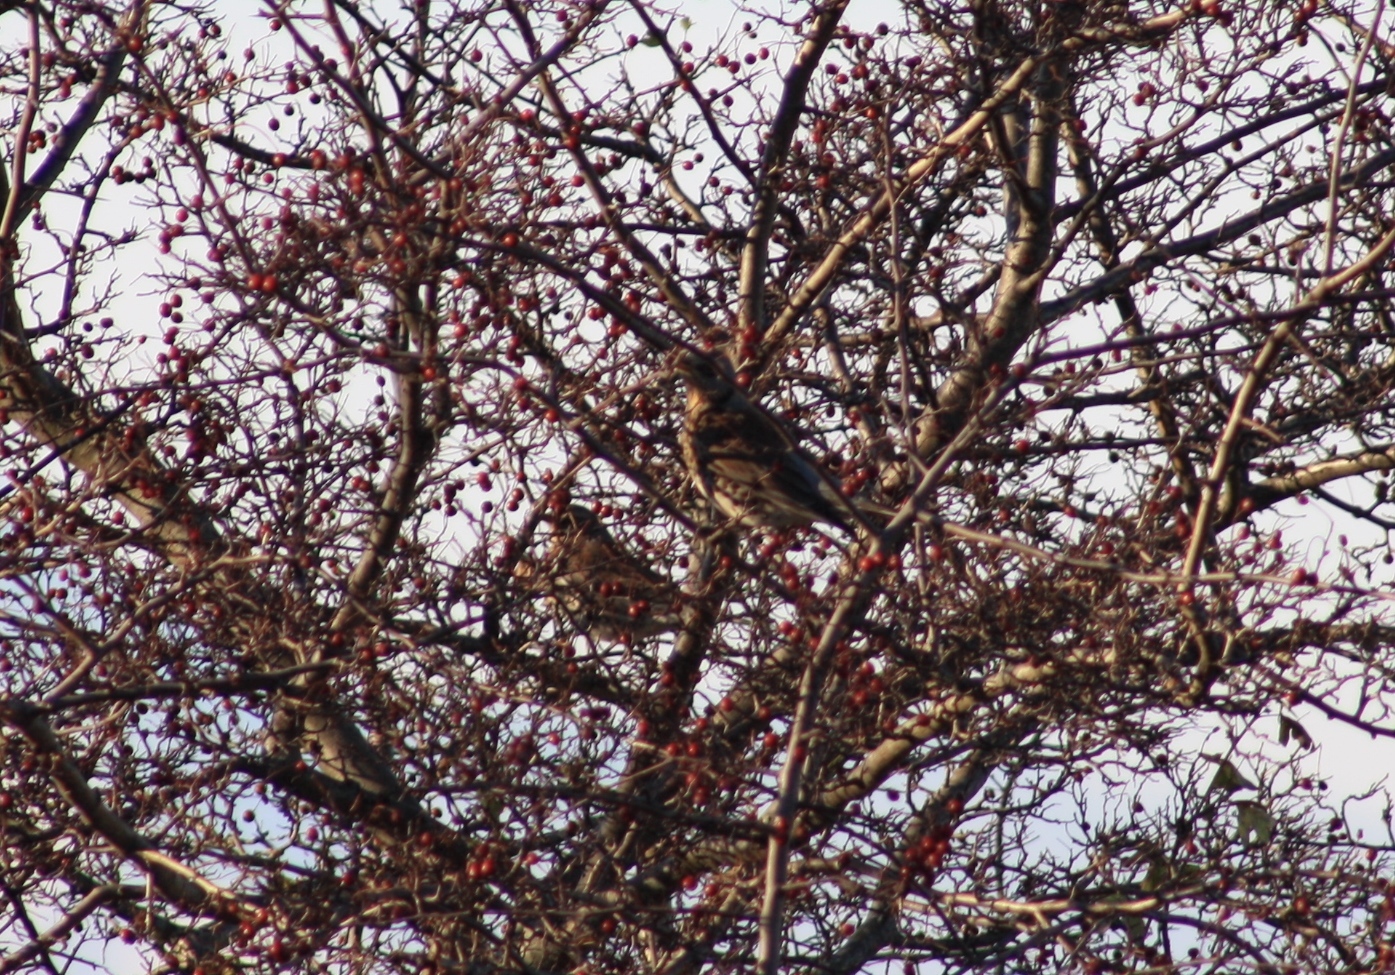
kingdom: Animalia
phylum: Chordata
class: Aves
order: Passeriformes
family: Turdidae
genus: Turdus
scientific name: Turdus pilaris
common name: Fieldfare
